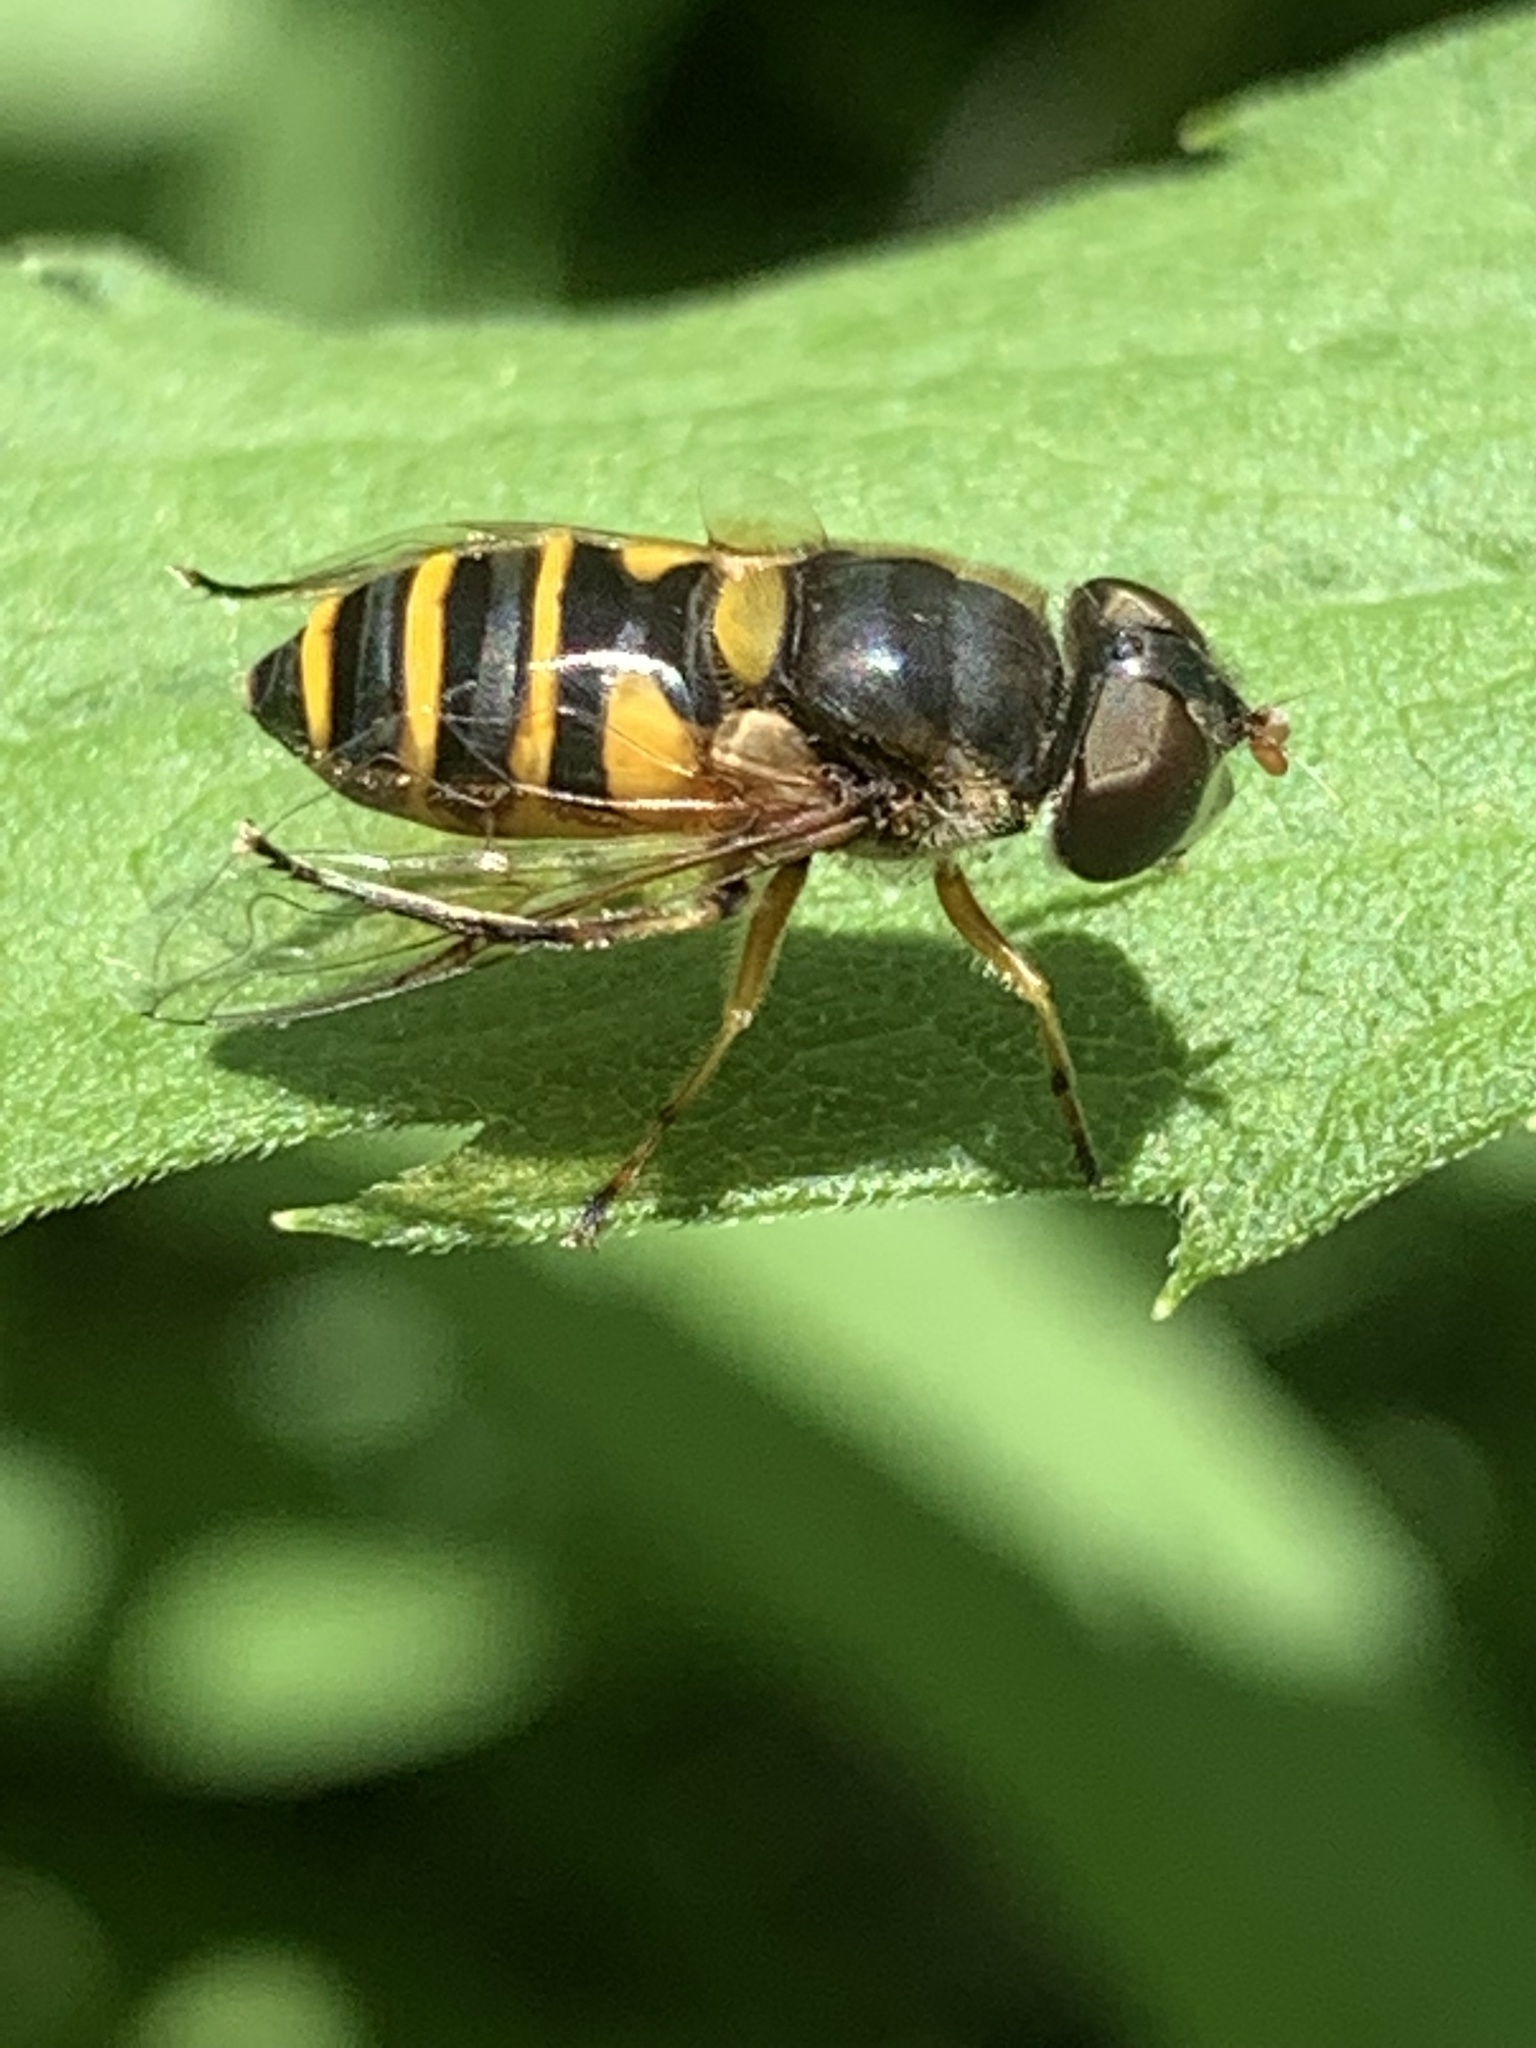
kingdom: Animalia
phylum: Arthropoda
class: Insecta
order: Diptera
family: Syrphidae
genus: Eristalis
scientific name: Eristalis transversa
